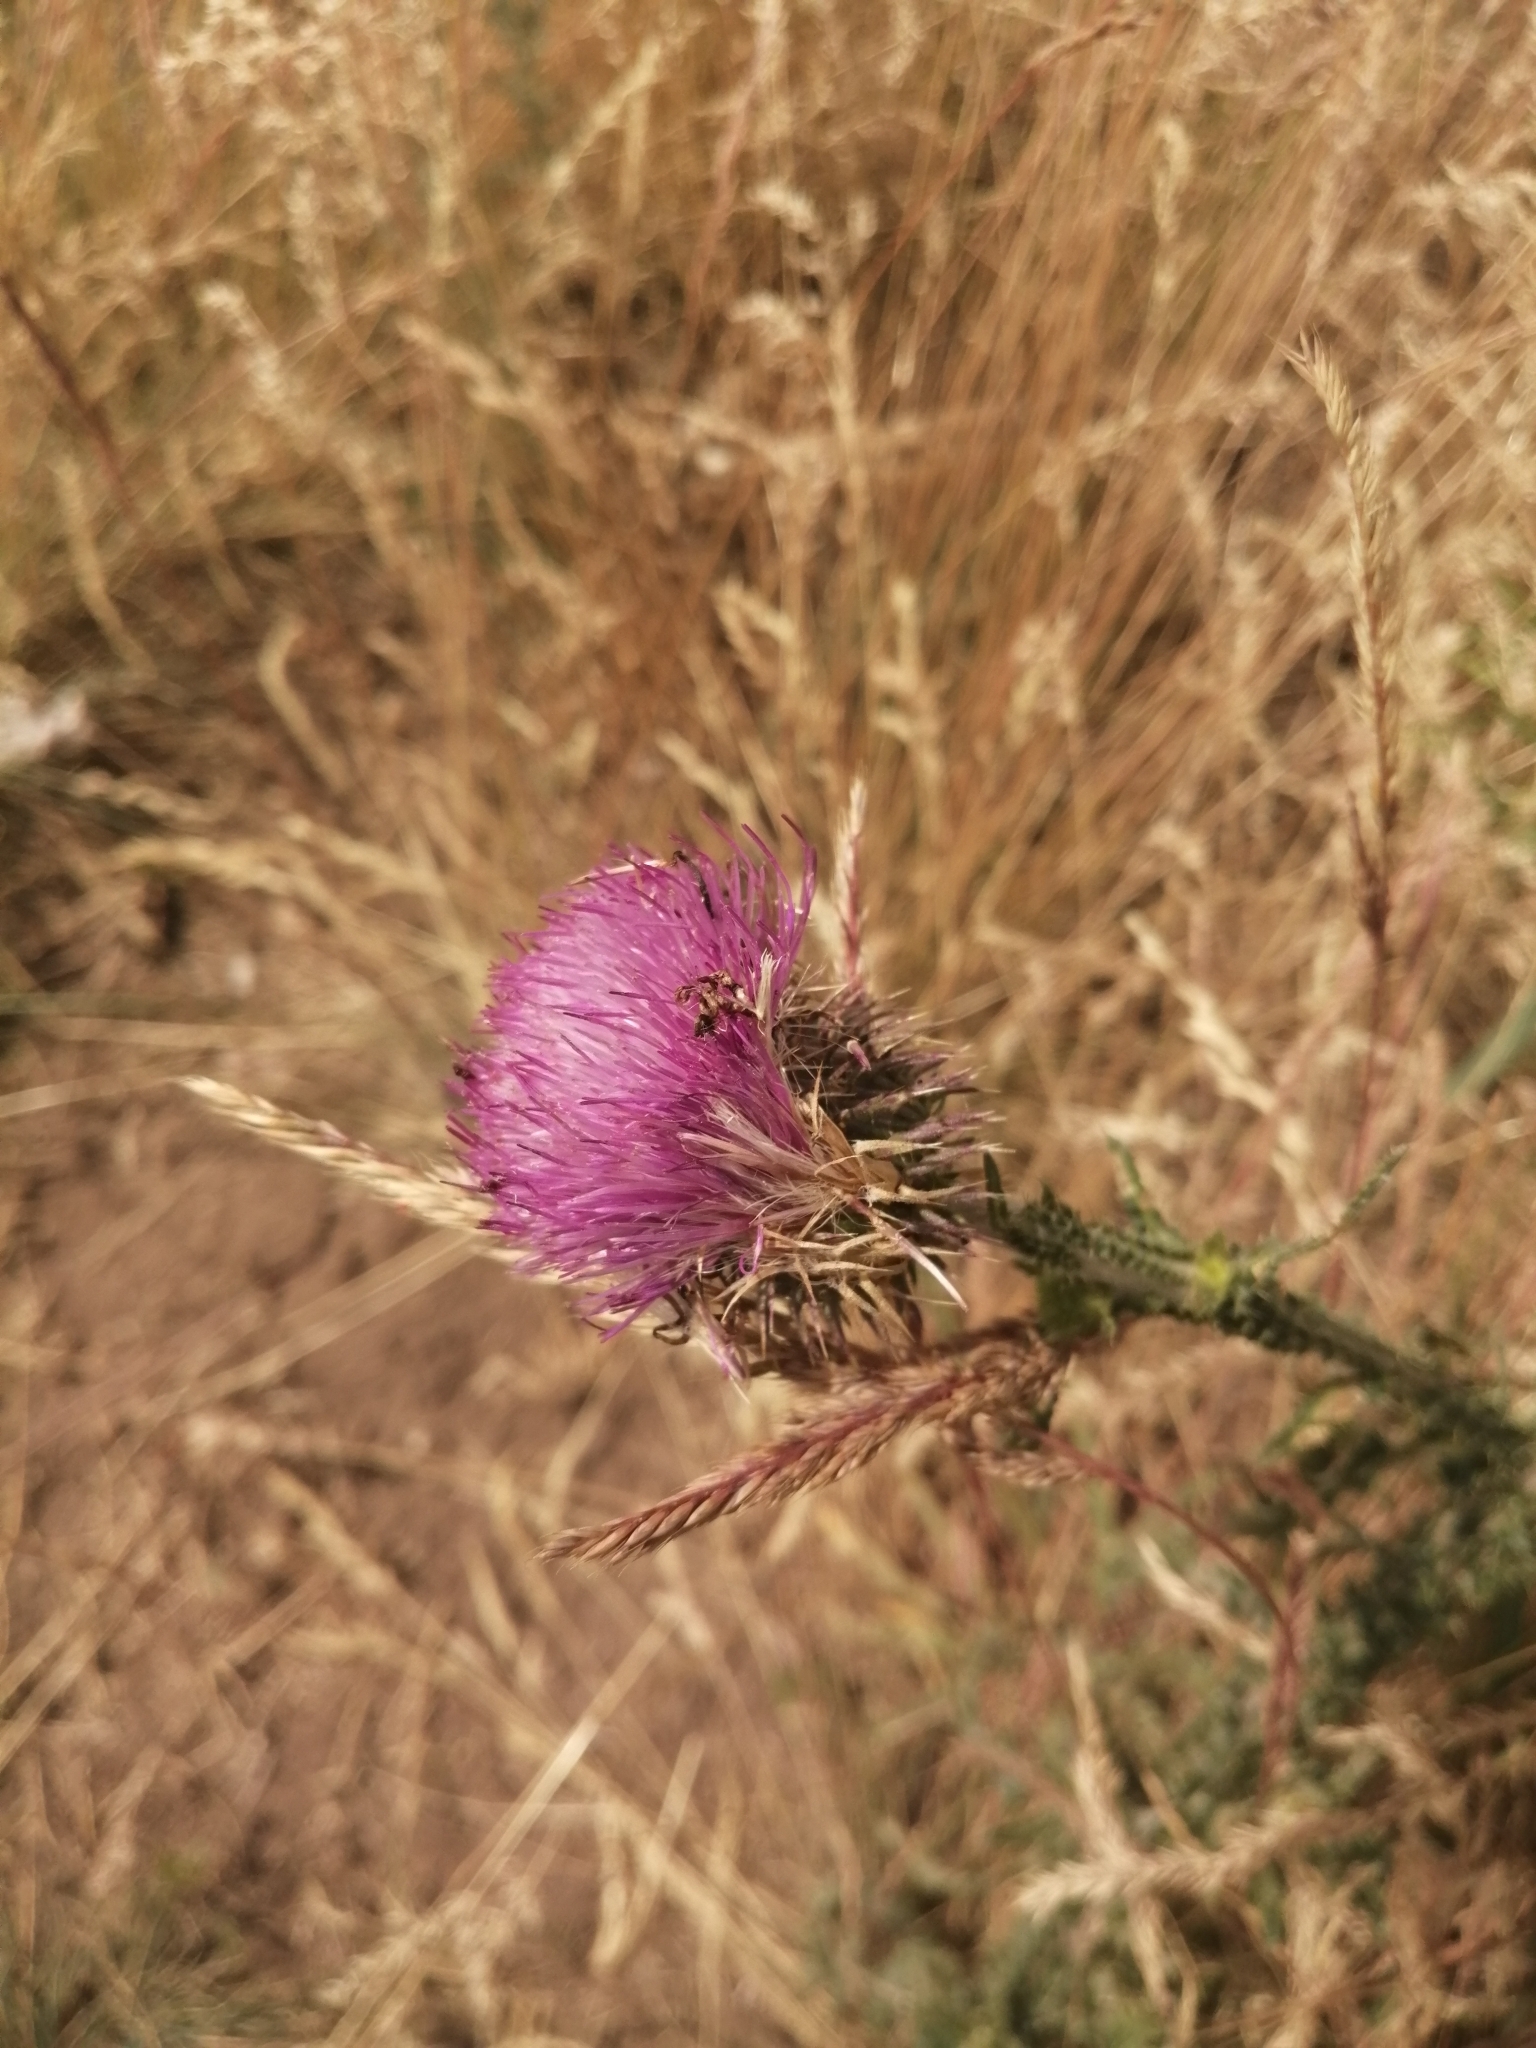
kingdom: Plantae
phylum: Tracheophyta
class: Magnoliopsida
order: Asterales
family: Asteraceae
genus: Carduus
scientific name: Carduus uncinatus
